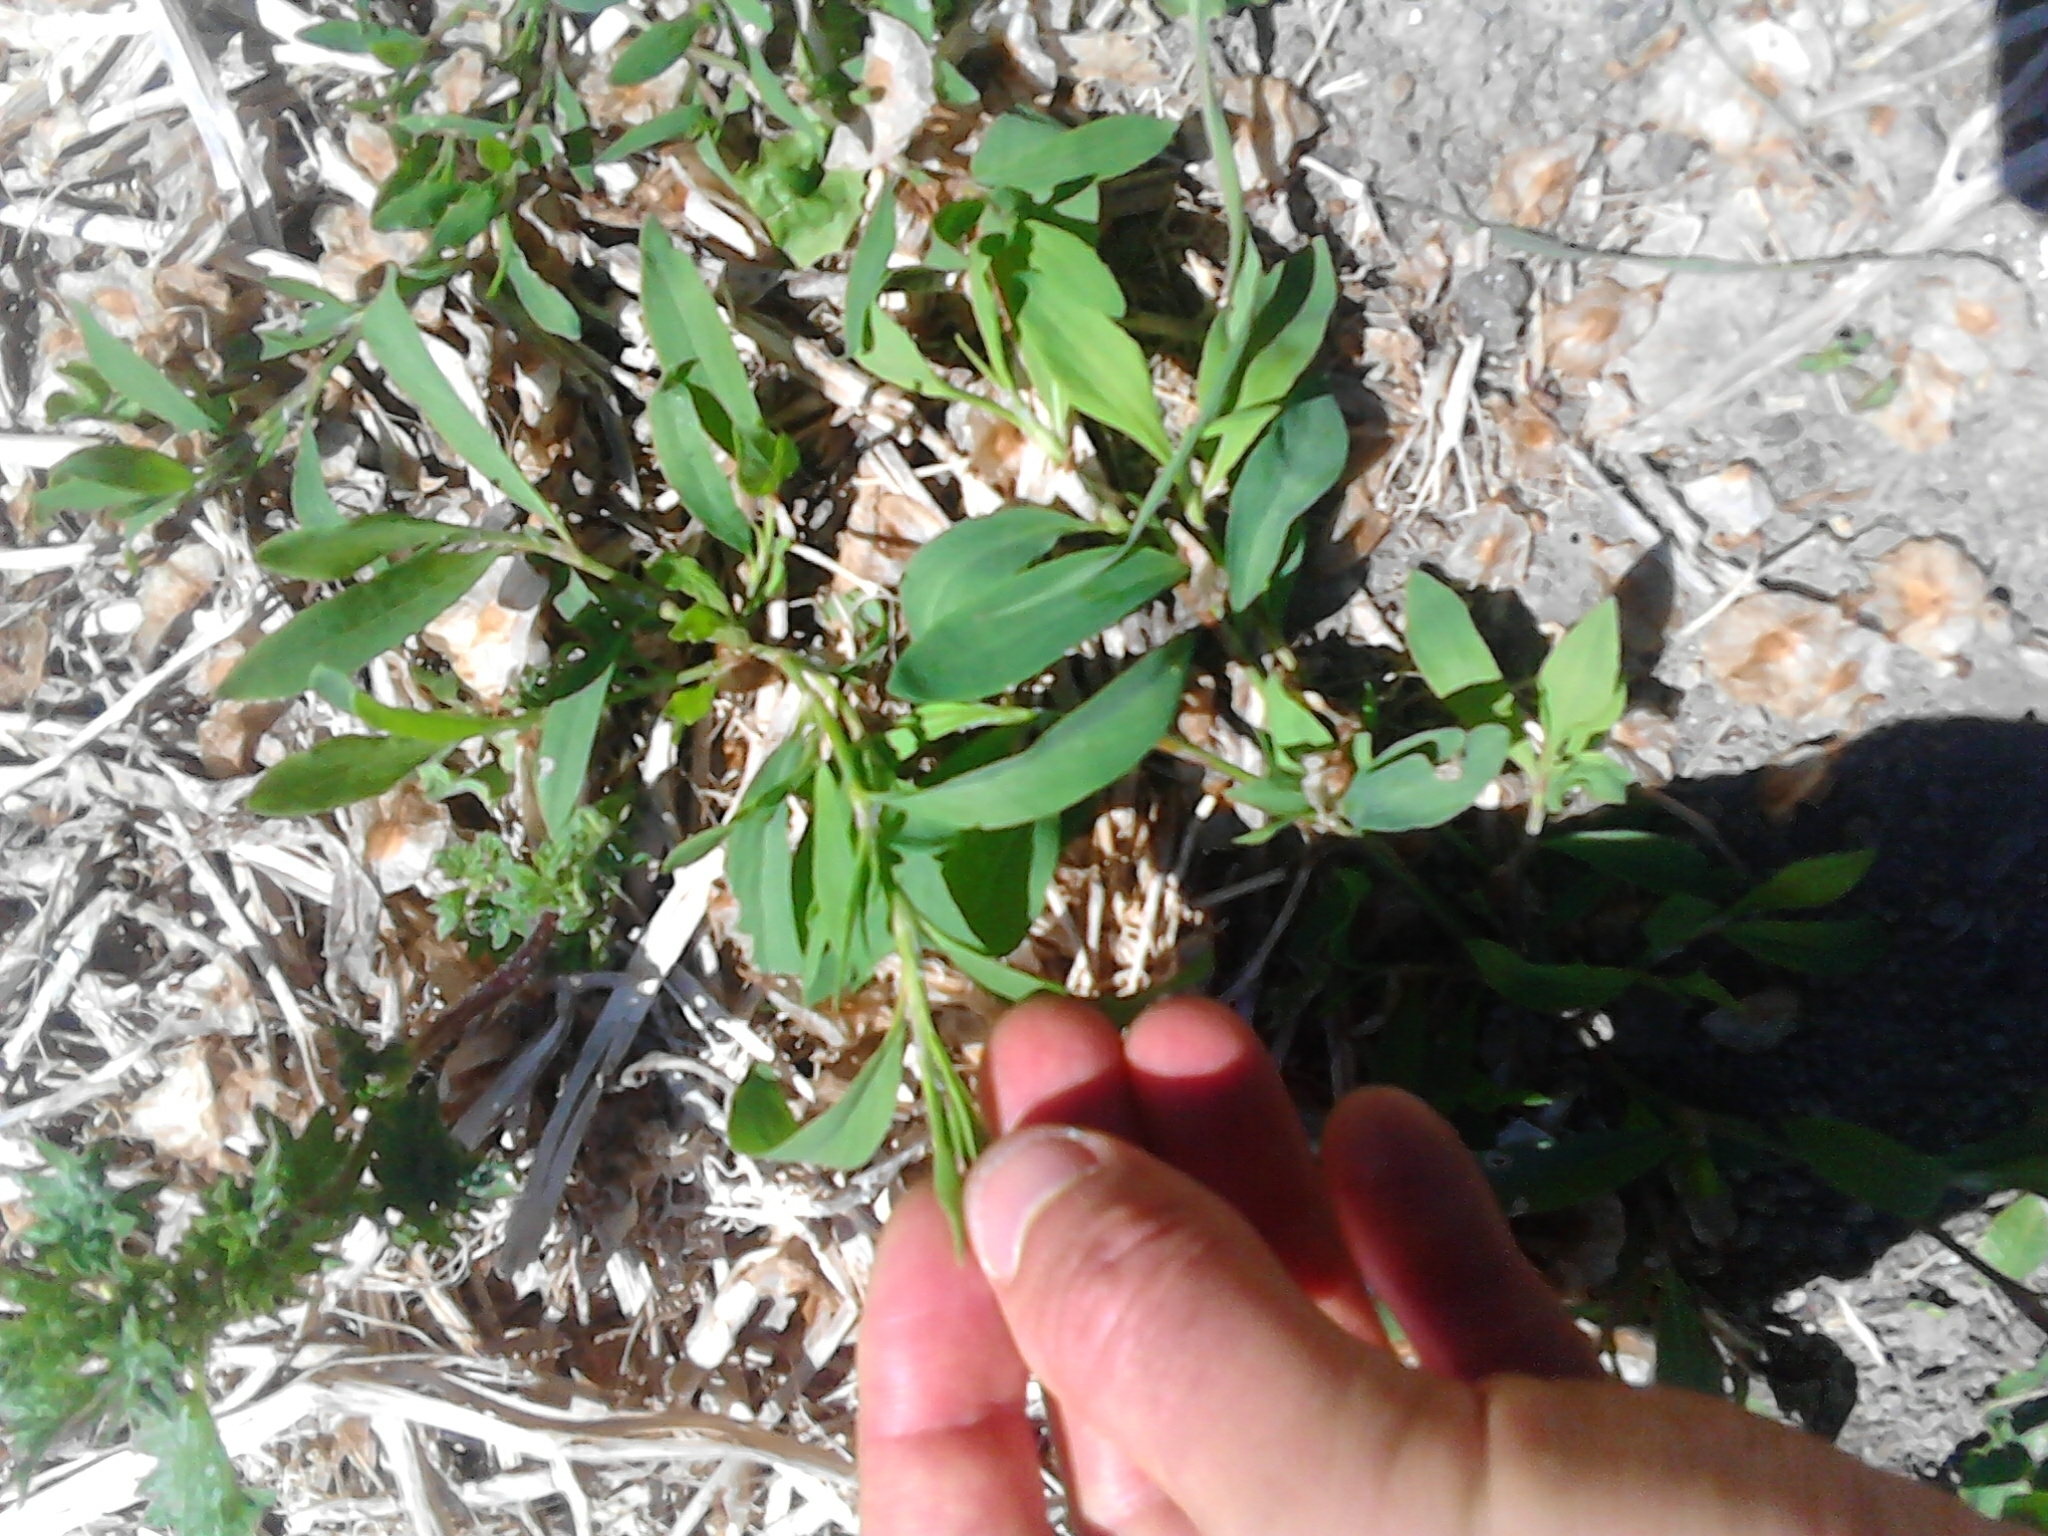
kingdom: Plantae
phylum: Tracheophyta
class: Magnoliopsida
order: Caryophyllales
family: Polygonaceae
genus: Polygonum
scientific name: Polygonum aviculare
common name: Prostrate knotweed
